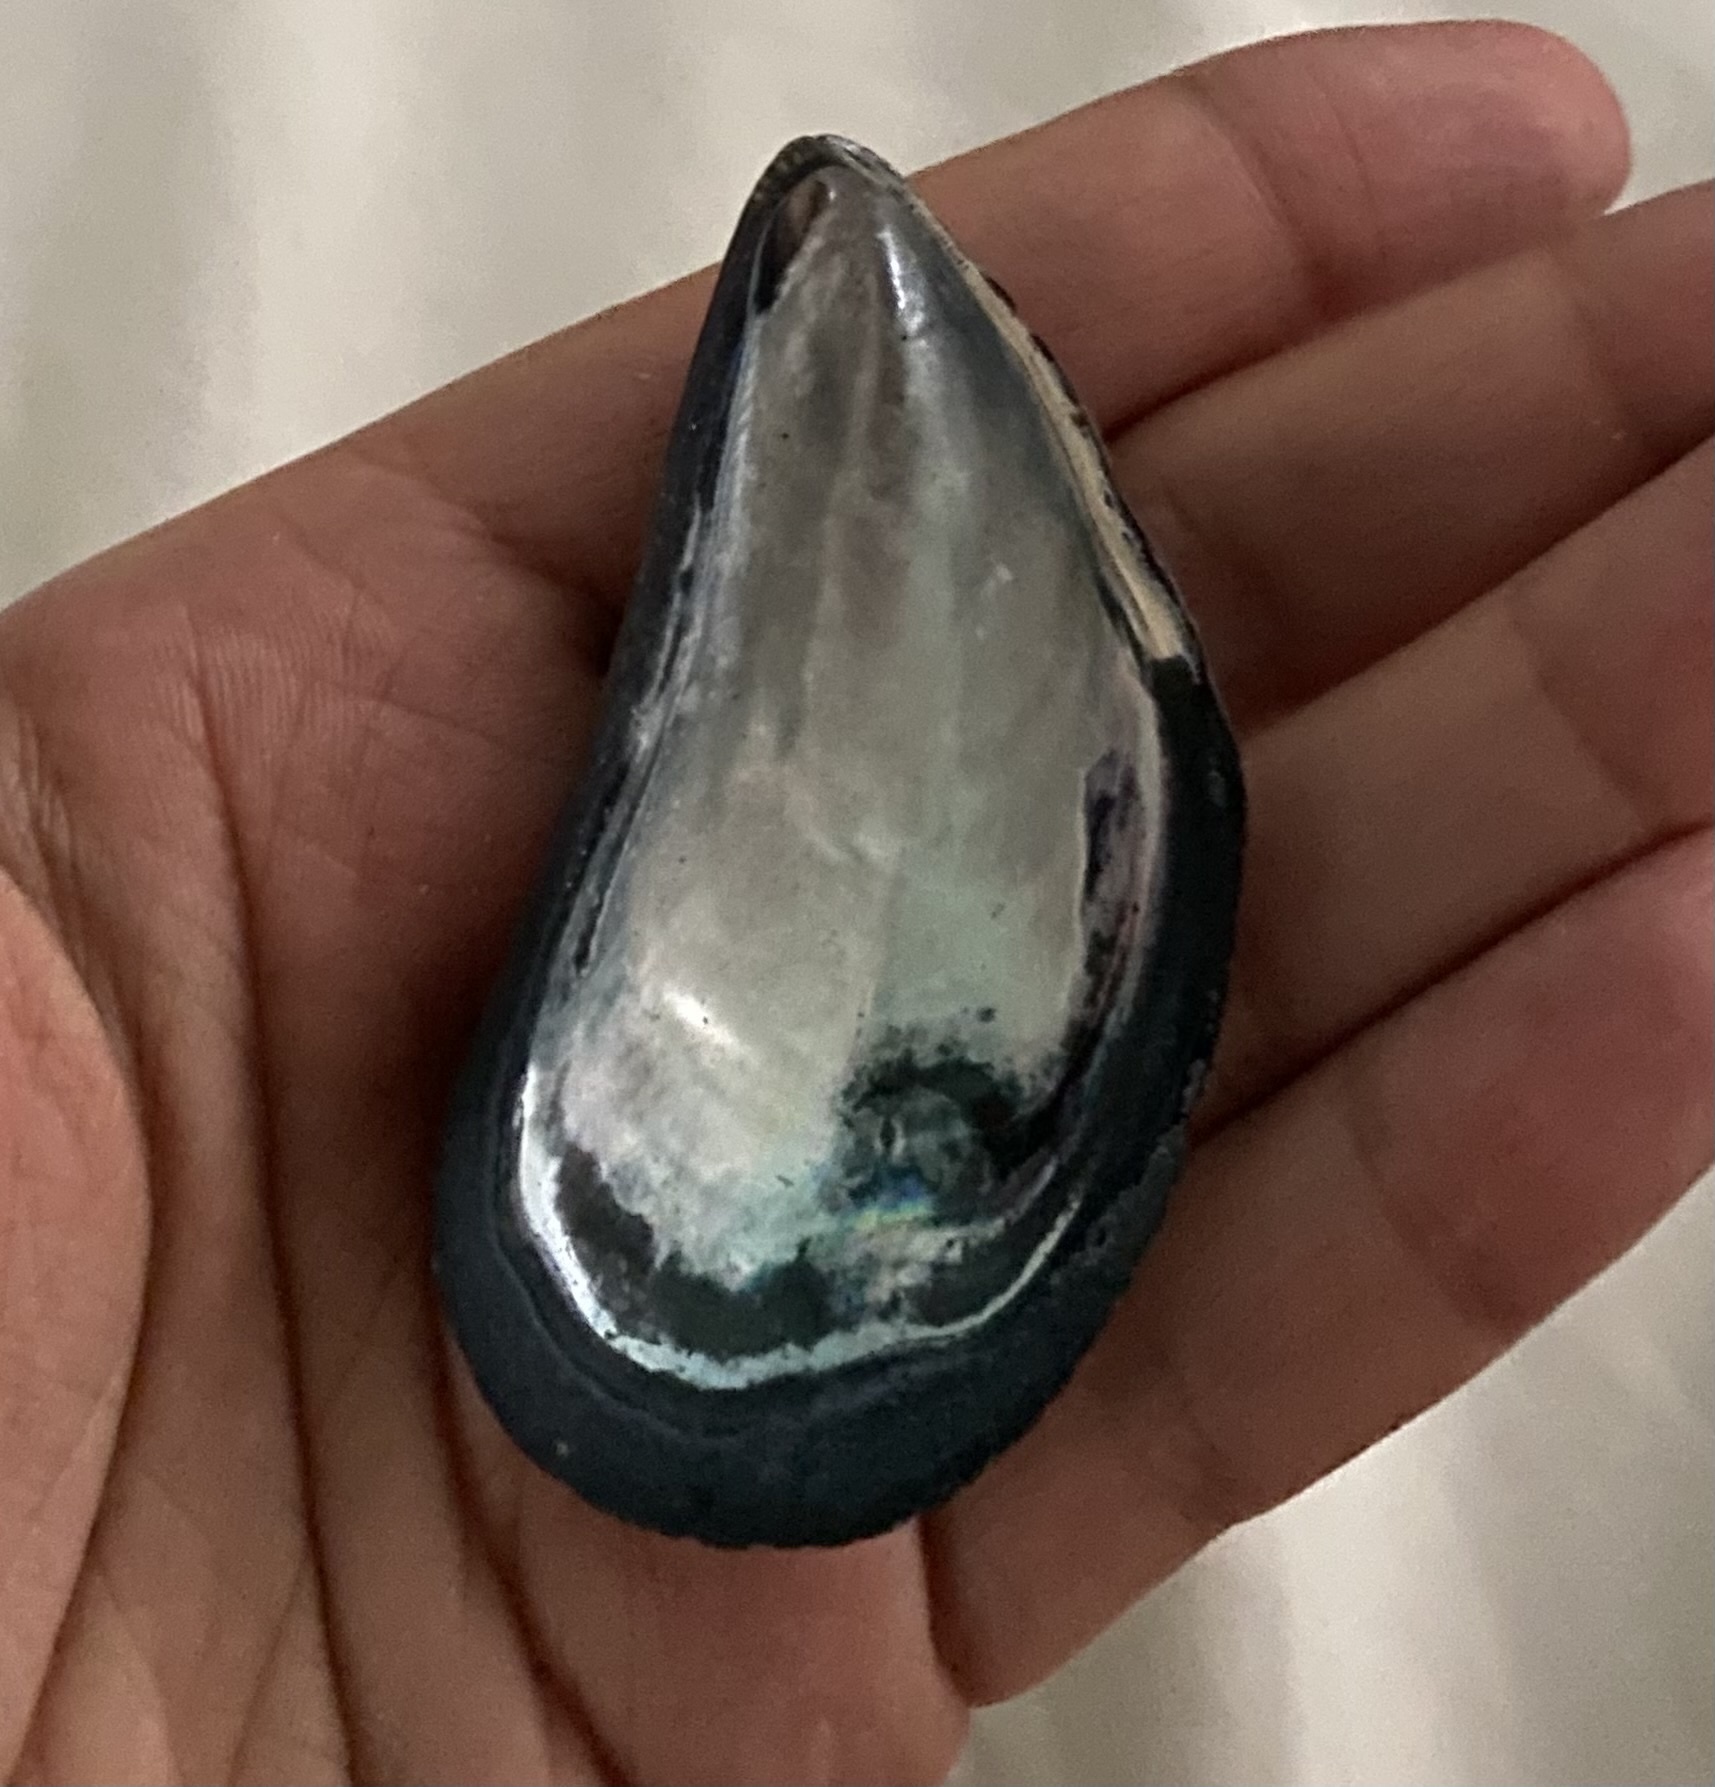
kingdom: Animalia
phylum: Mollusca
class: Bivalvia
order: Mytilida
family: Mytilidae
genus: Mytilus
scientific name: Mytilus edulis
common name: Blue mussel
